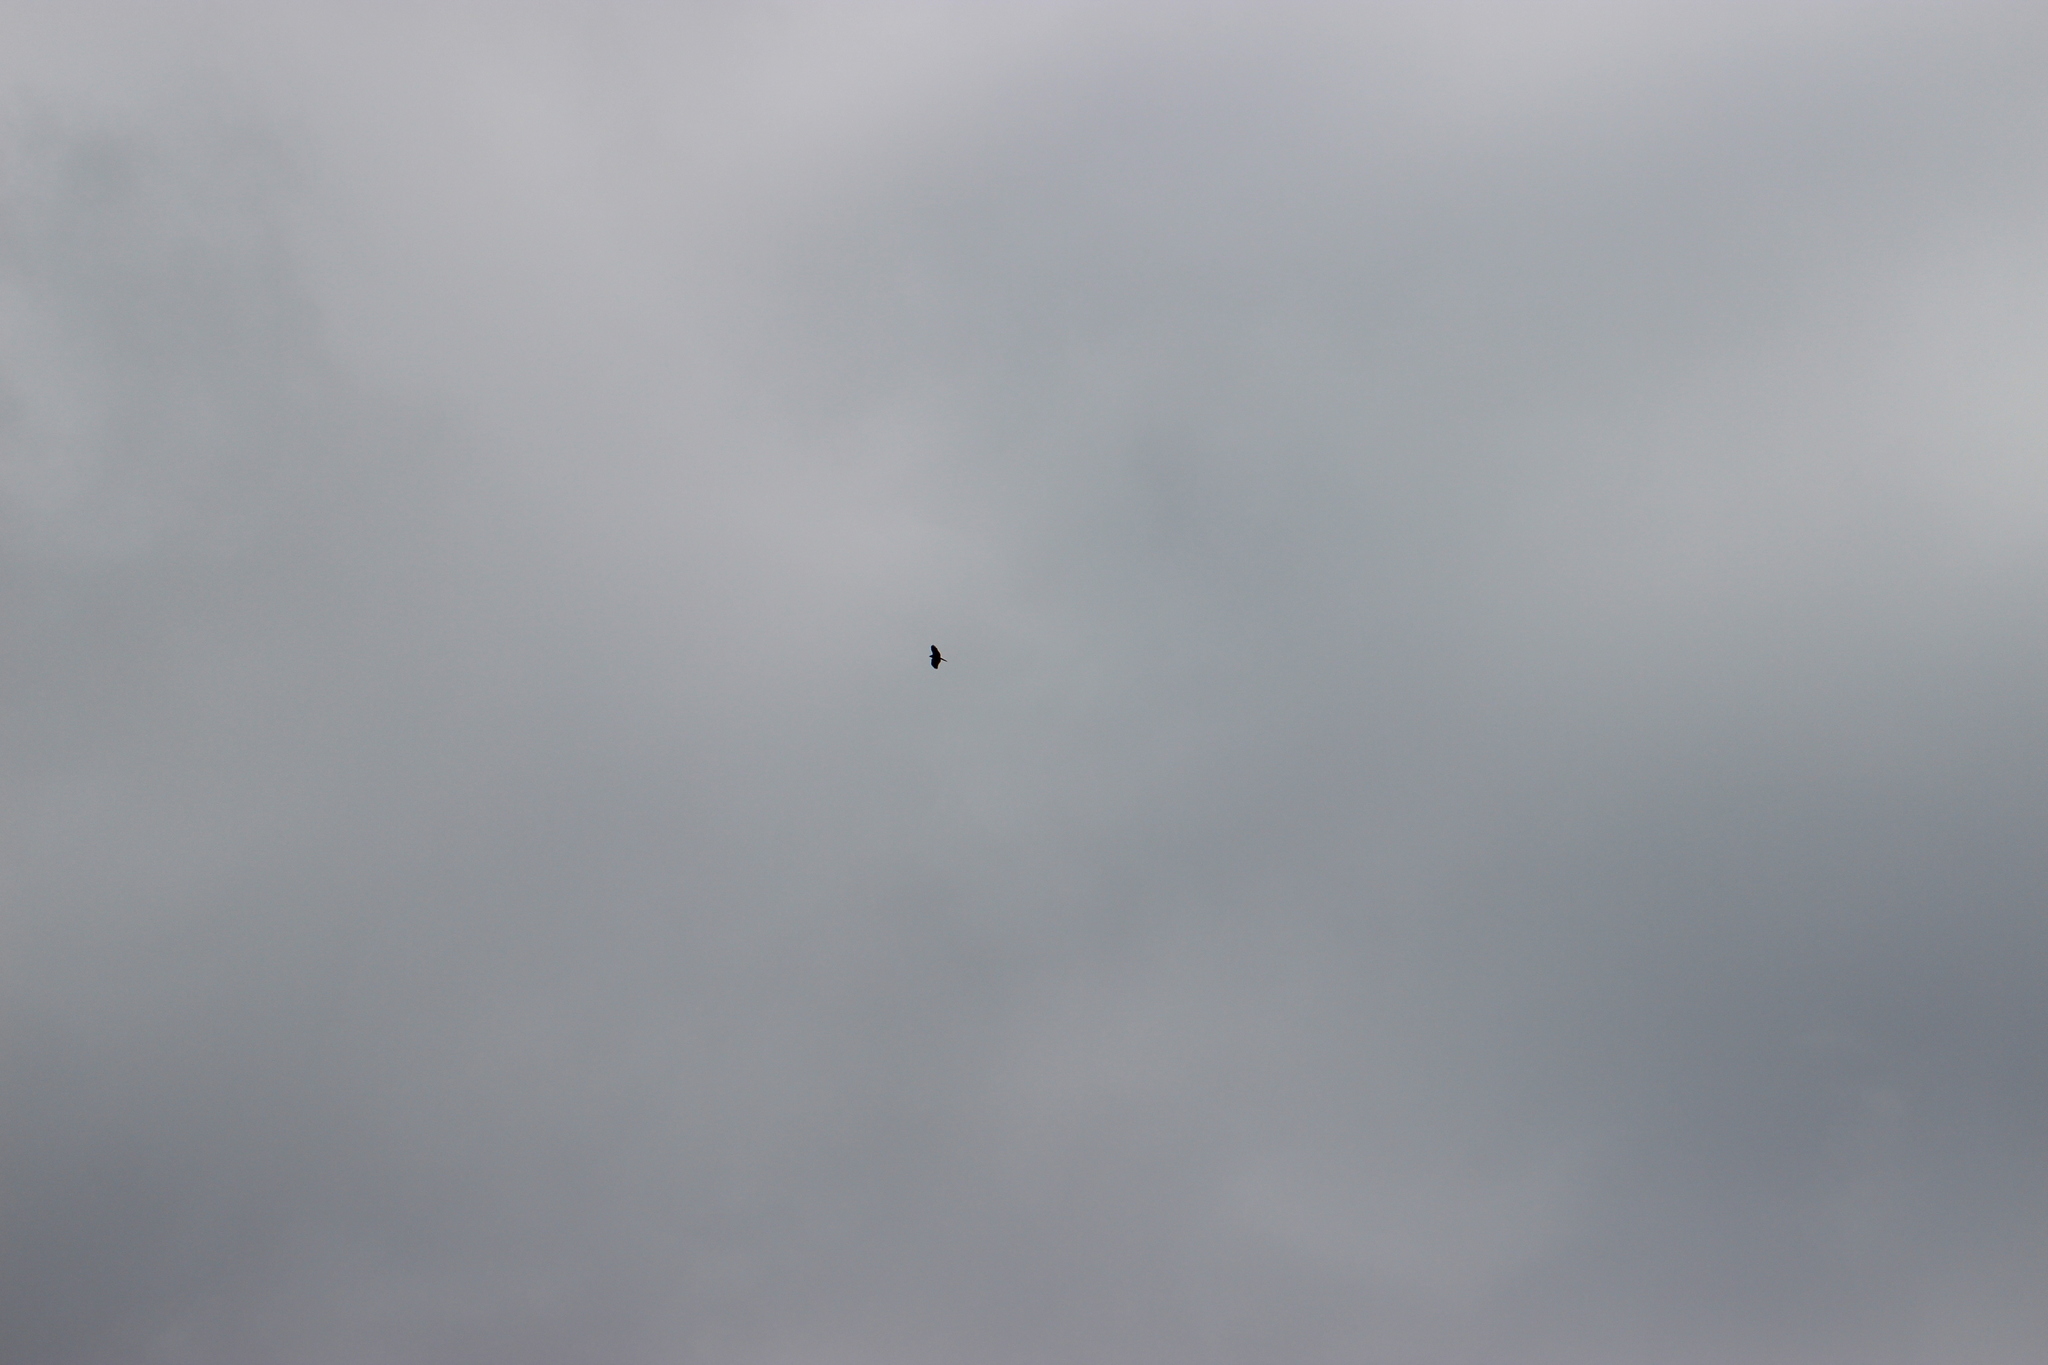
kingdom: Animalia
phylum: Chordata
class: Aves
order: Accipitriformes
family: Accipitridae
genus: Milvus
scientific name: Milvus migrans
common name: Black kite
